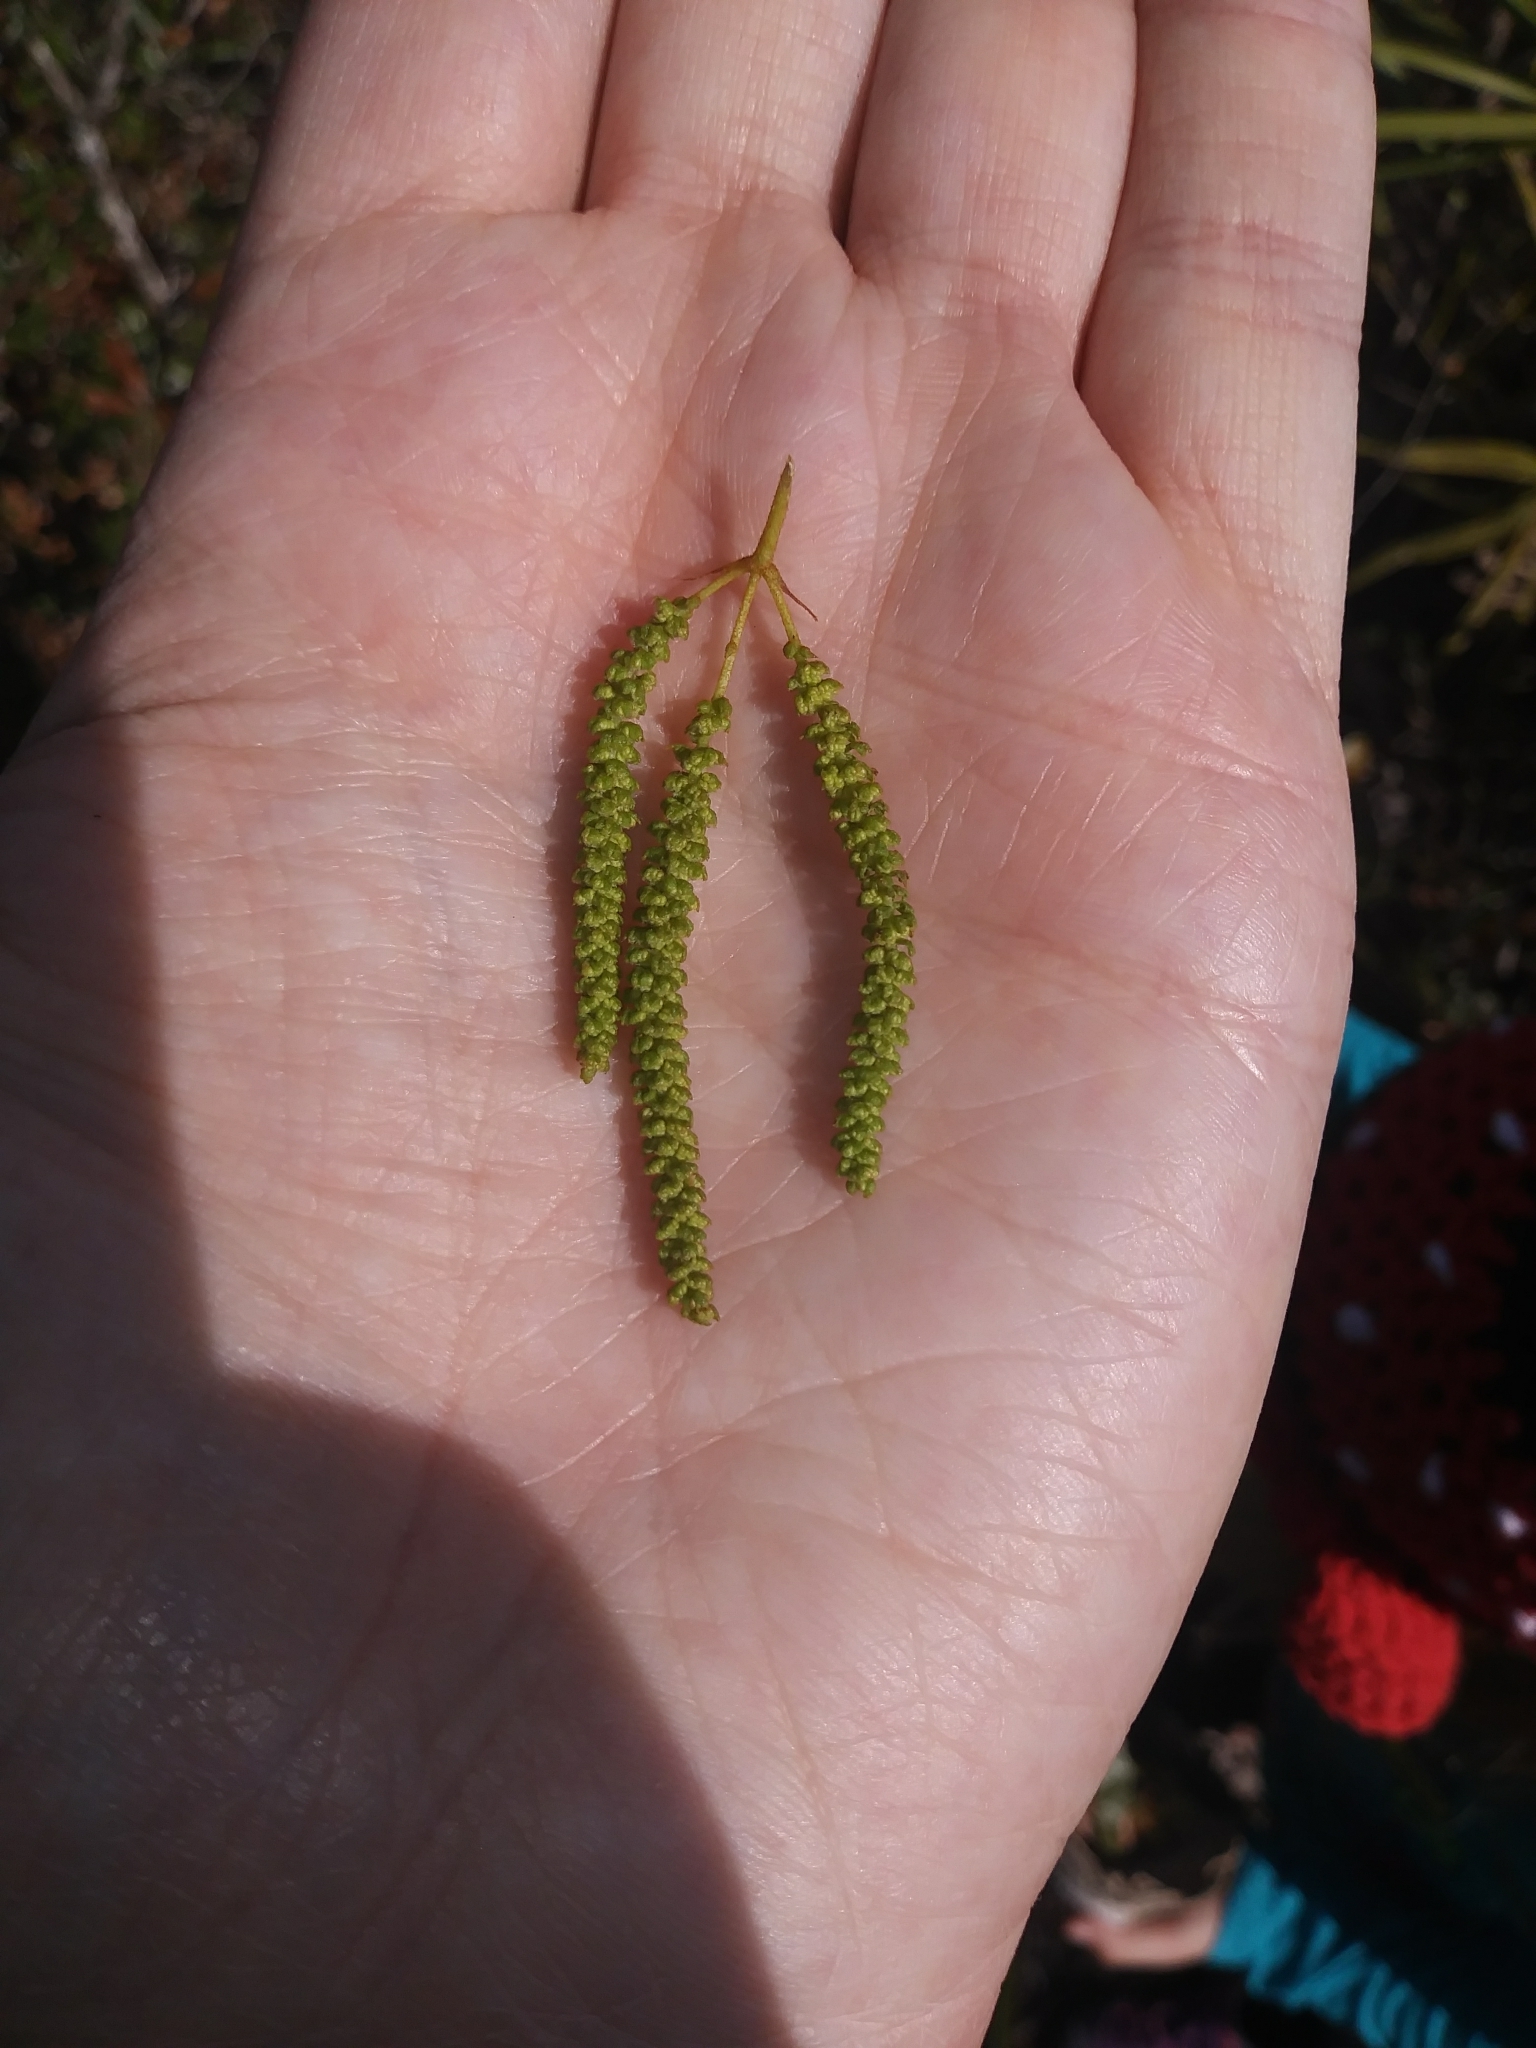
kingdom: Plantae
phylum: Tracheophyta
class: Magnoliopsida
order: Fagales
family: Juglandaceae
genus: Carya
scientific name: Carya floridana
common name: Scrub hickory
